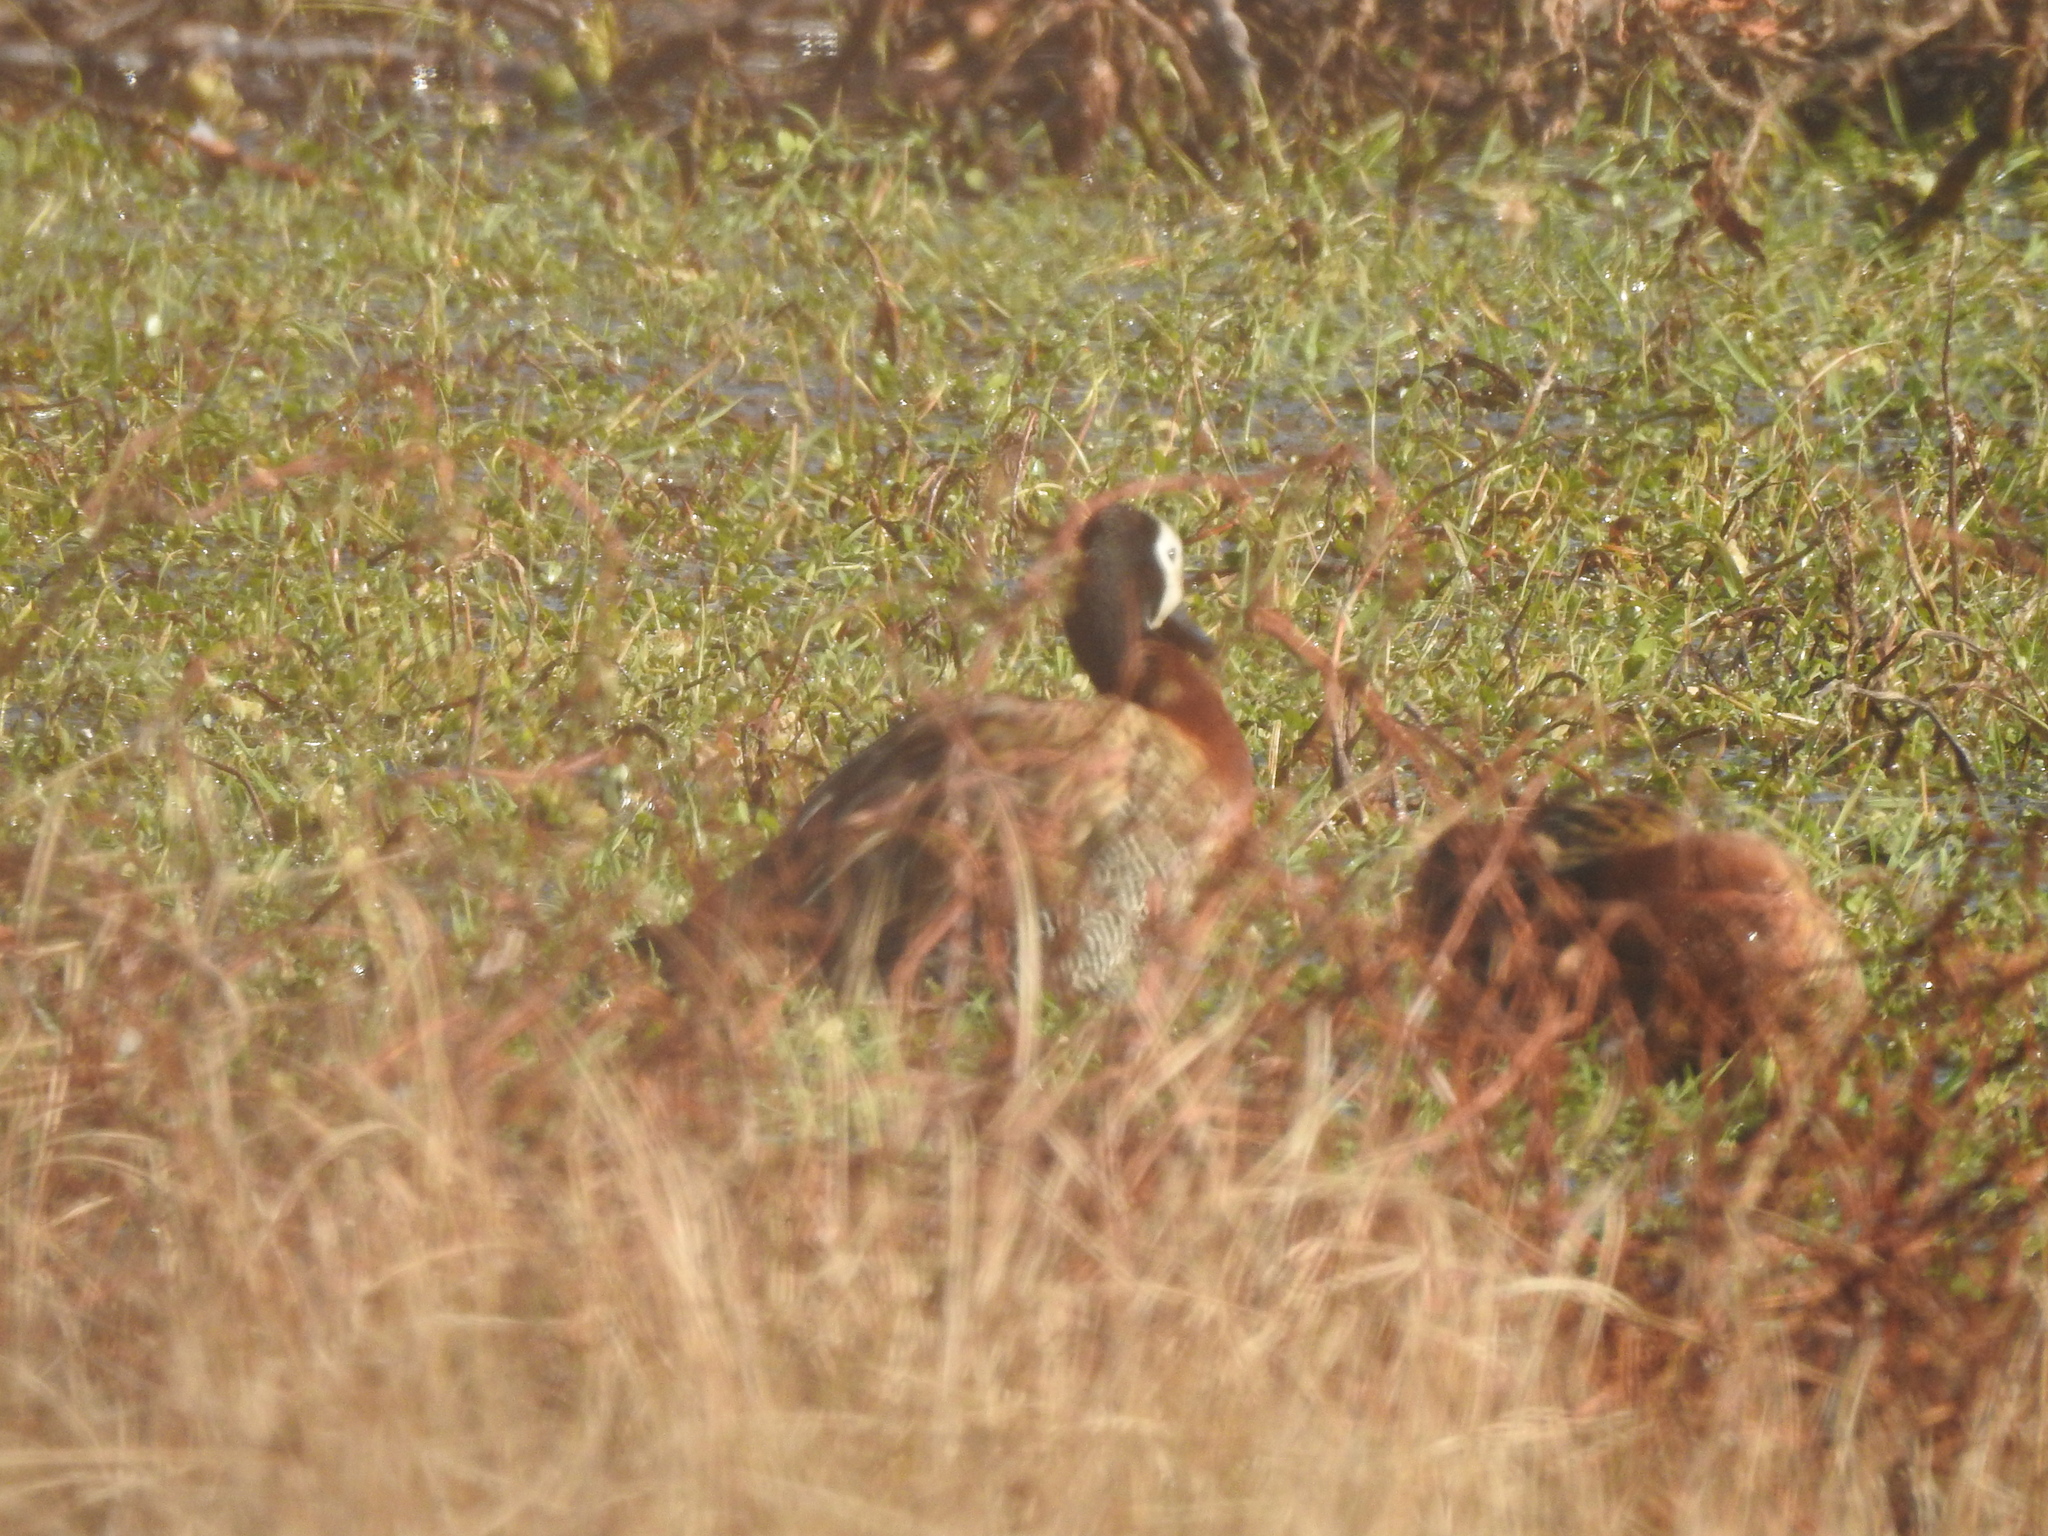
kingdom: Animalia
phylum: Chordata
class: Aves
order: Anseriformes
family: Anatidae
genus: Dendrocygna
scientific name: Dendrocygna viduata
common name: White-faced whistling duck
